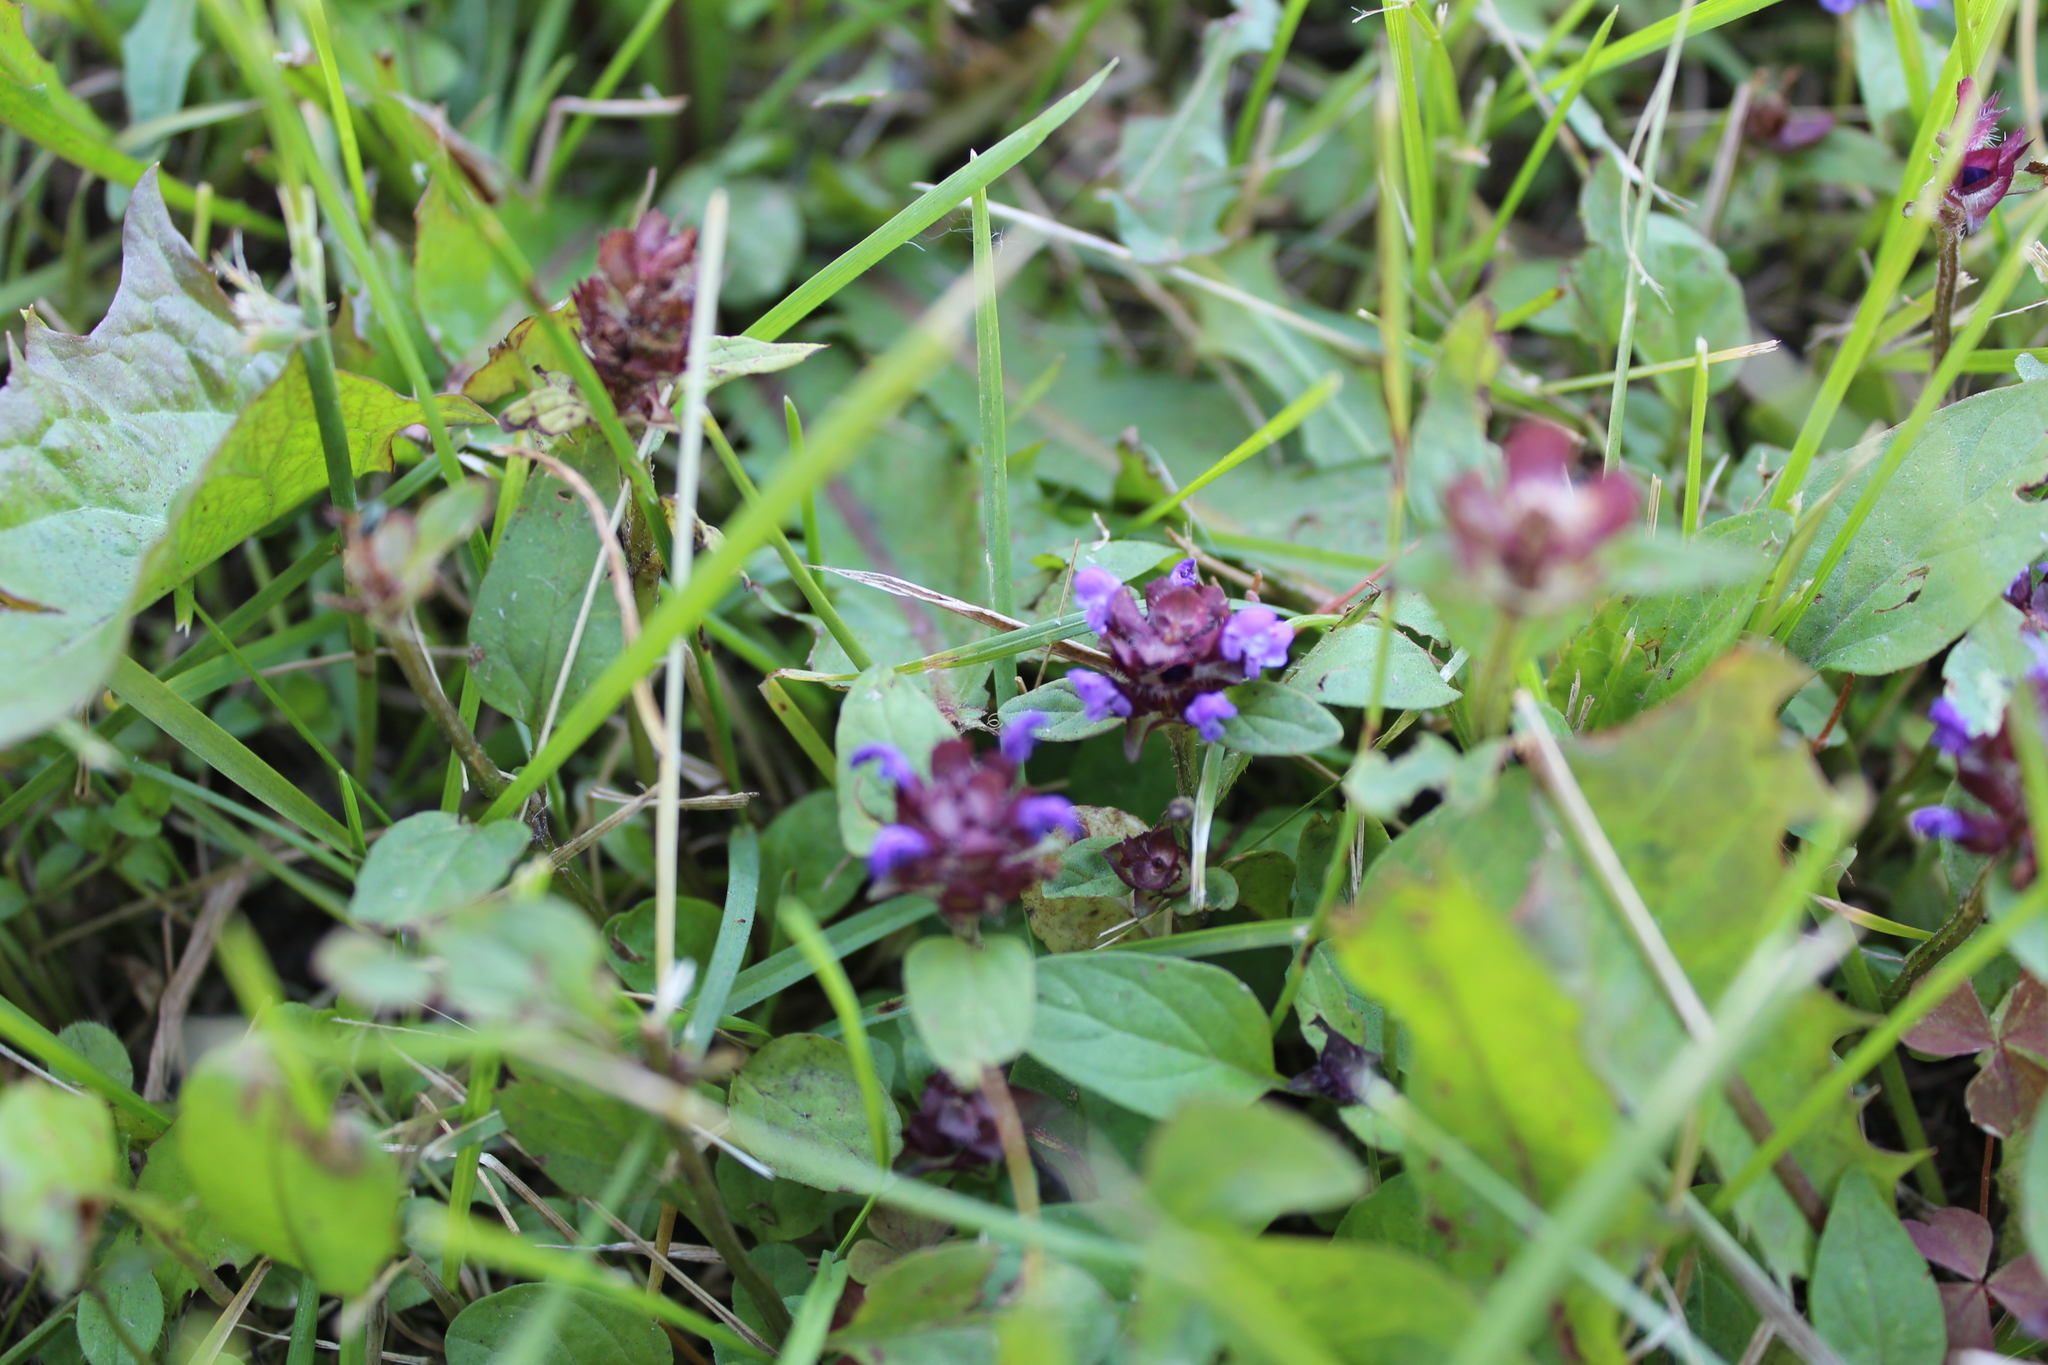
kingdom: Plantae
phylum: Tracheophyta
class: Magnoliopsida
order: Lamiales
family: Lamiaceae
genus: Prunella
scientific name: Prunella vulgaris
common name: Heal-all
